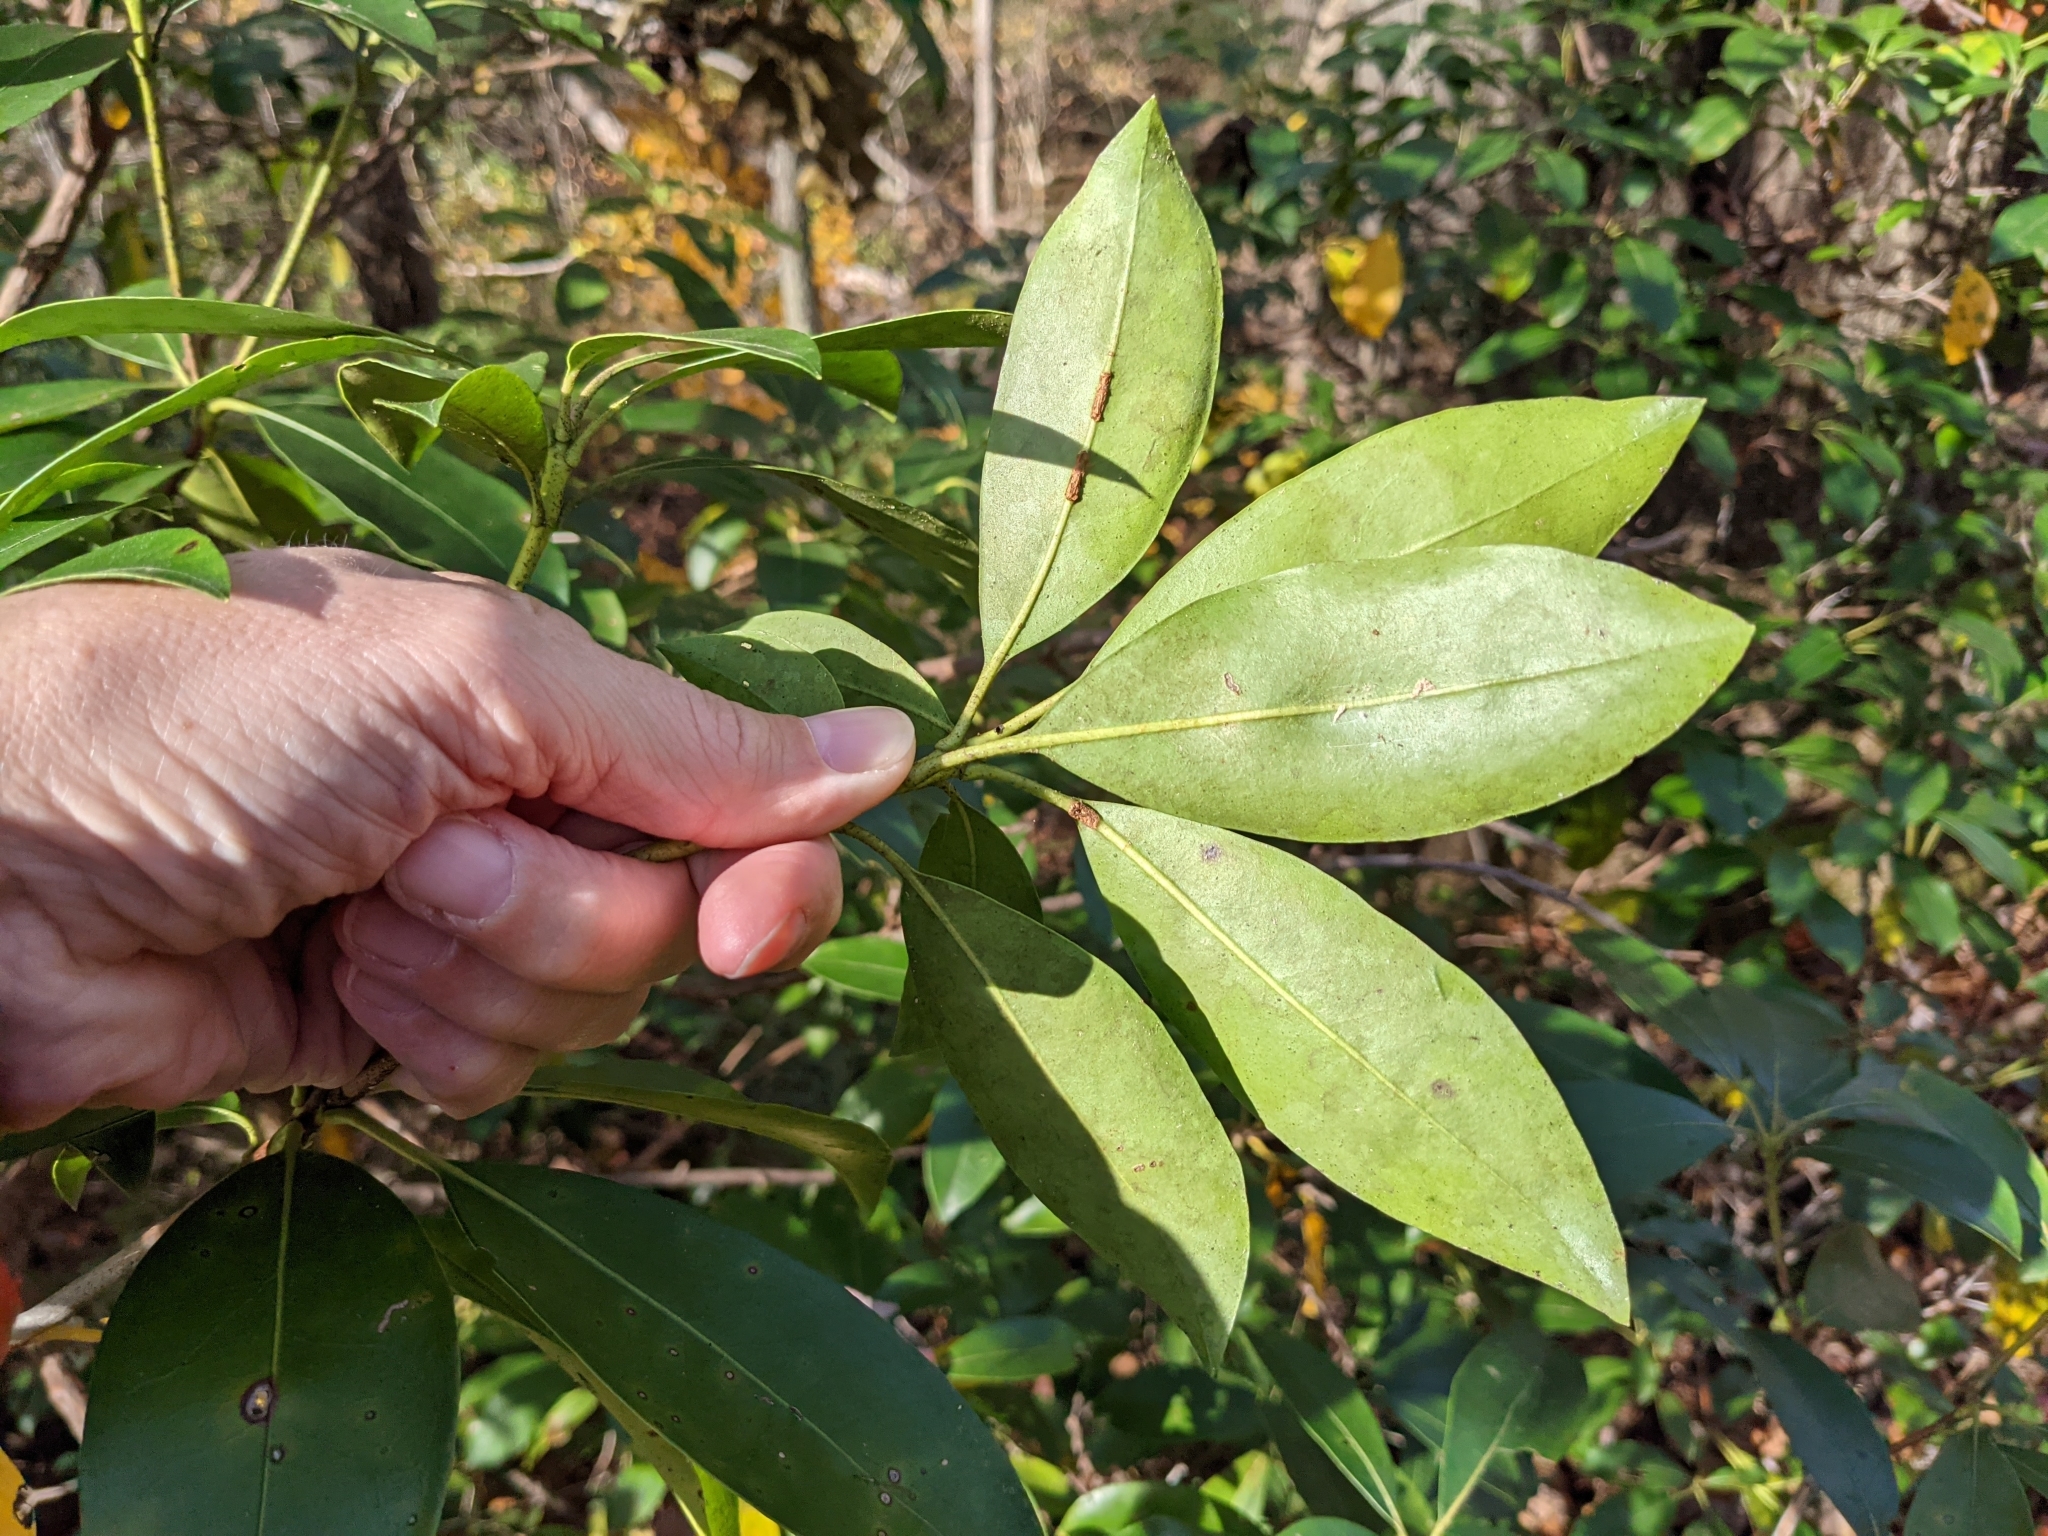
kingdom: Plantae
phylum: Tracheophyta
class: Magnoliopsida
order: Ericales
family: Ericaceae
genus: Kalmia
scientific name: Kalmia latifolia
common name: Mountain-laurel
